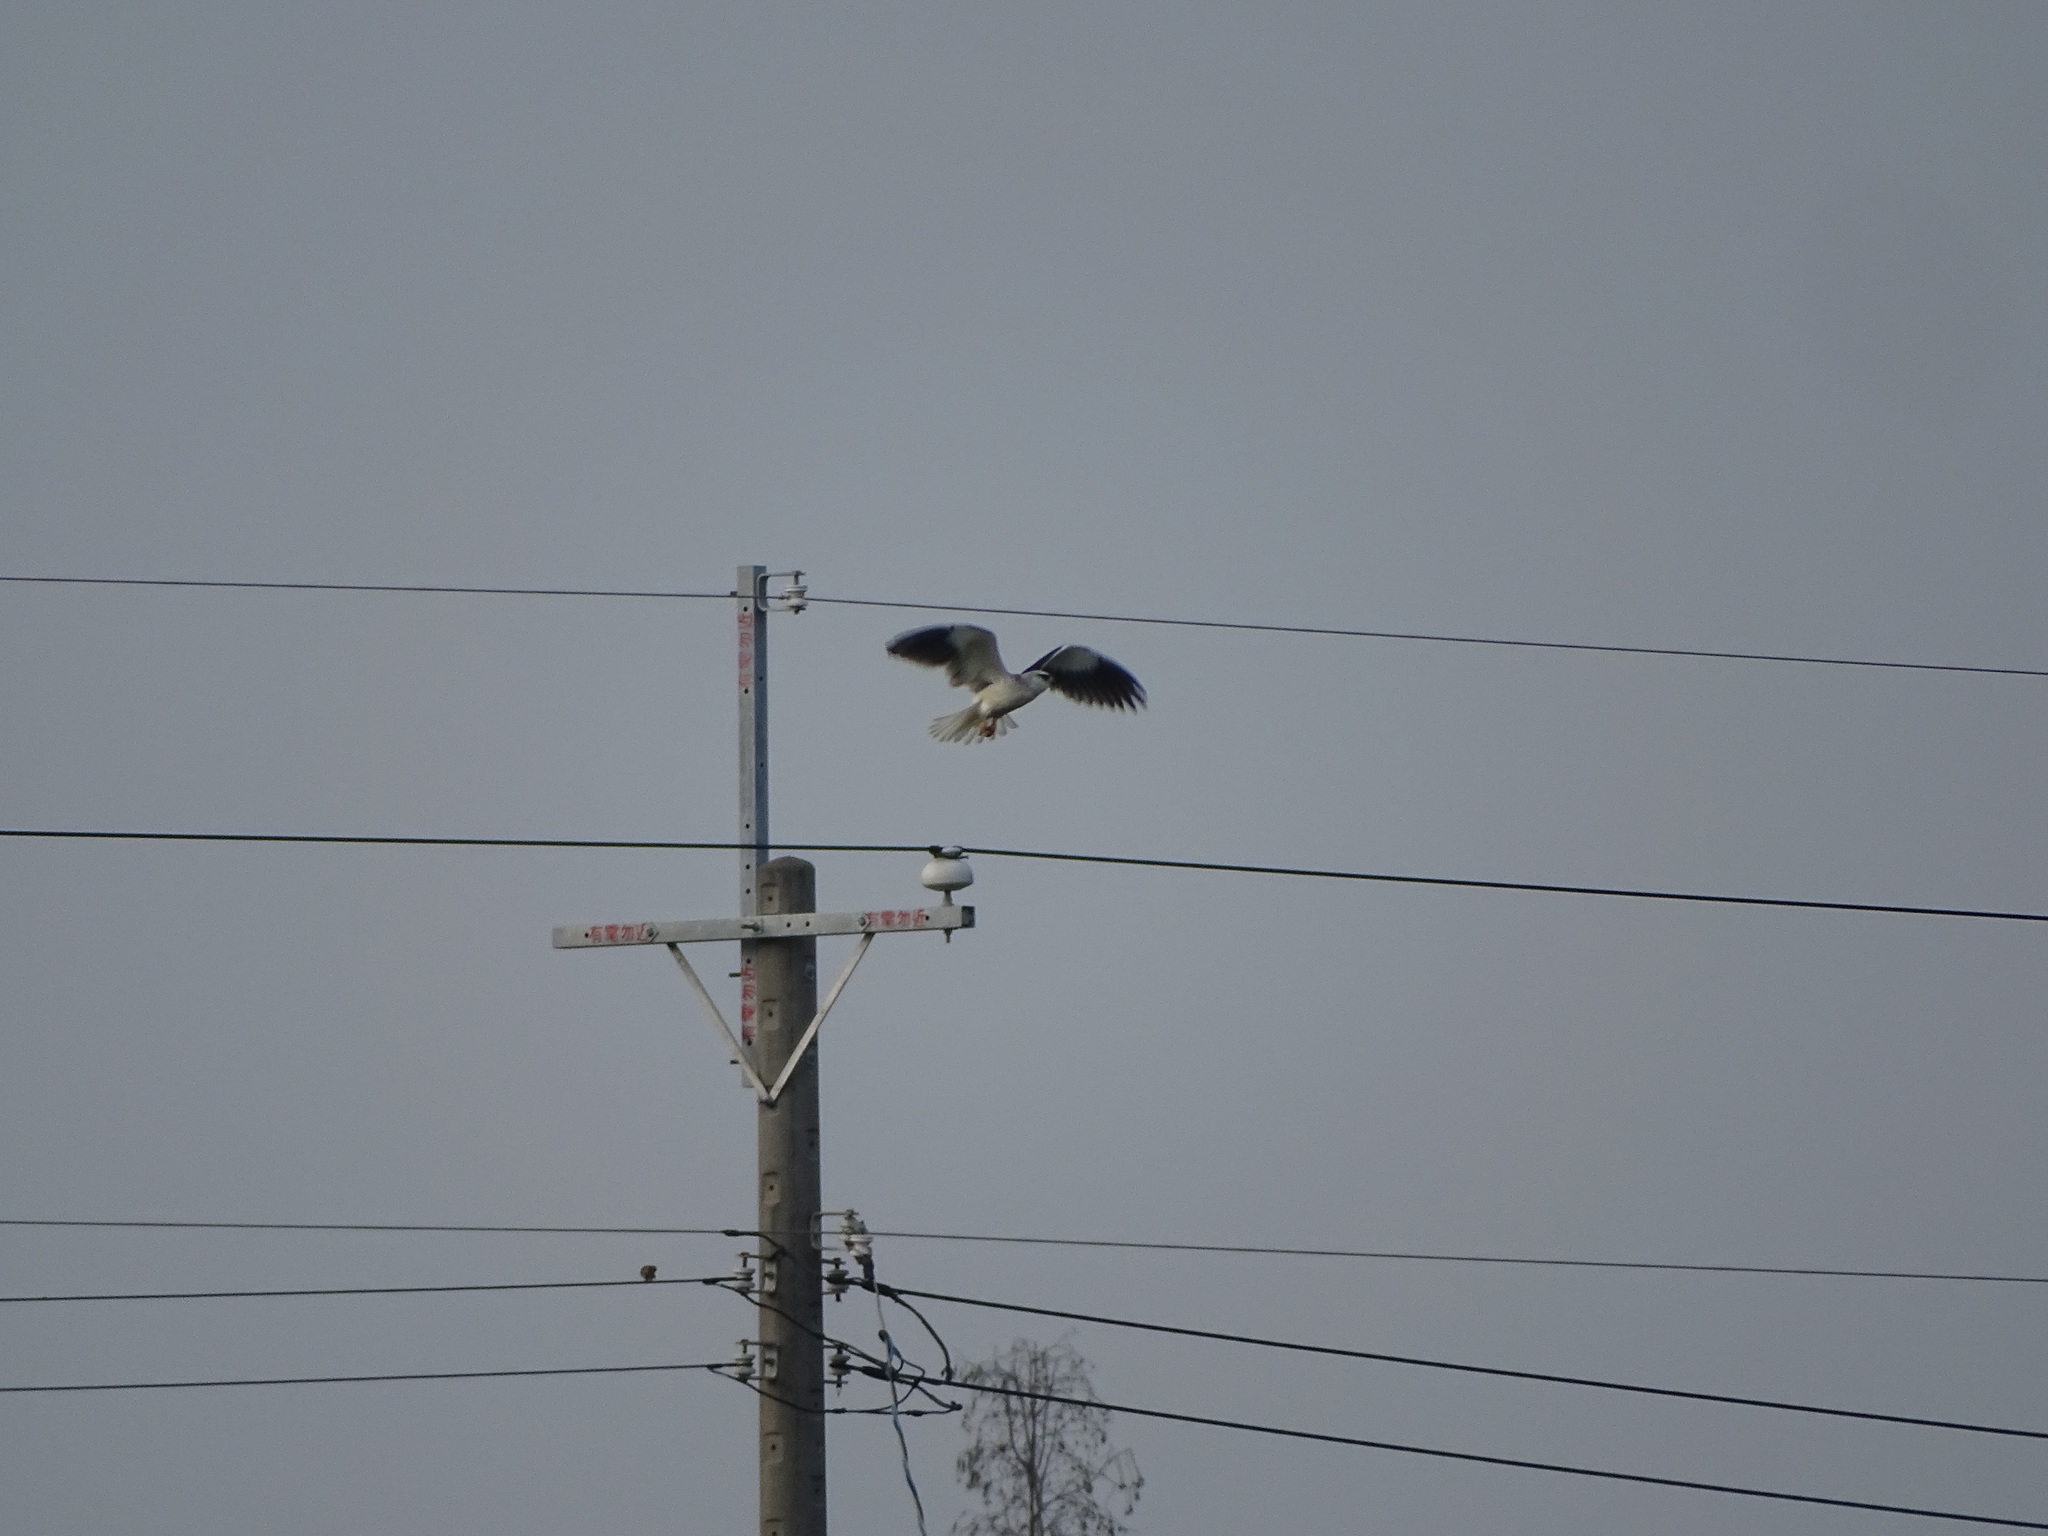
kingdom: Animalia
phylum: Chordata
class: Aves
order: Accipitriformes
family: Accipitridae
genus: Elanus
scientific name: Elanus caeruleus
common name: Black-winged kite
